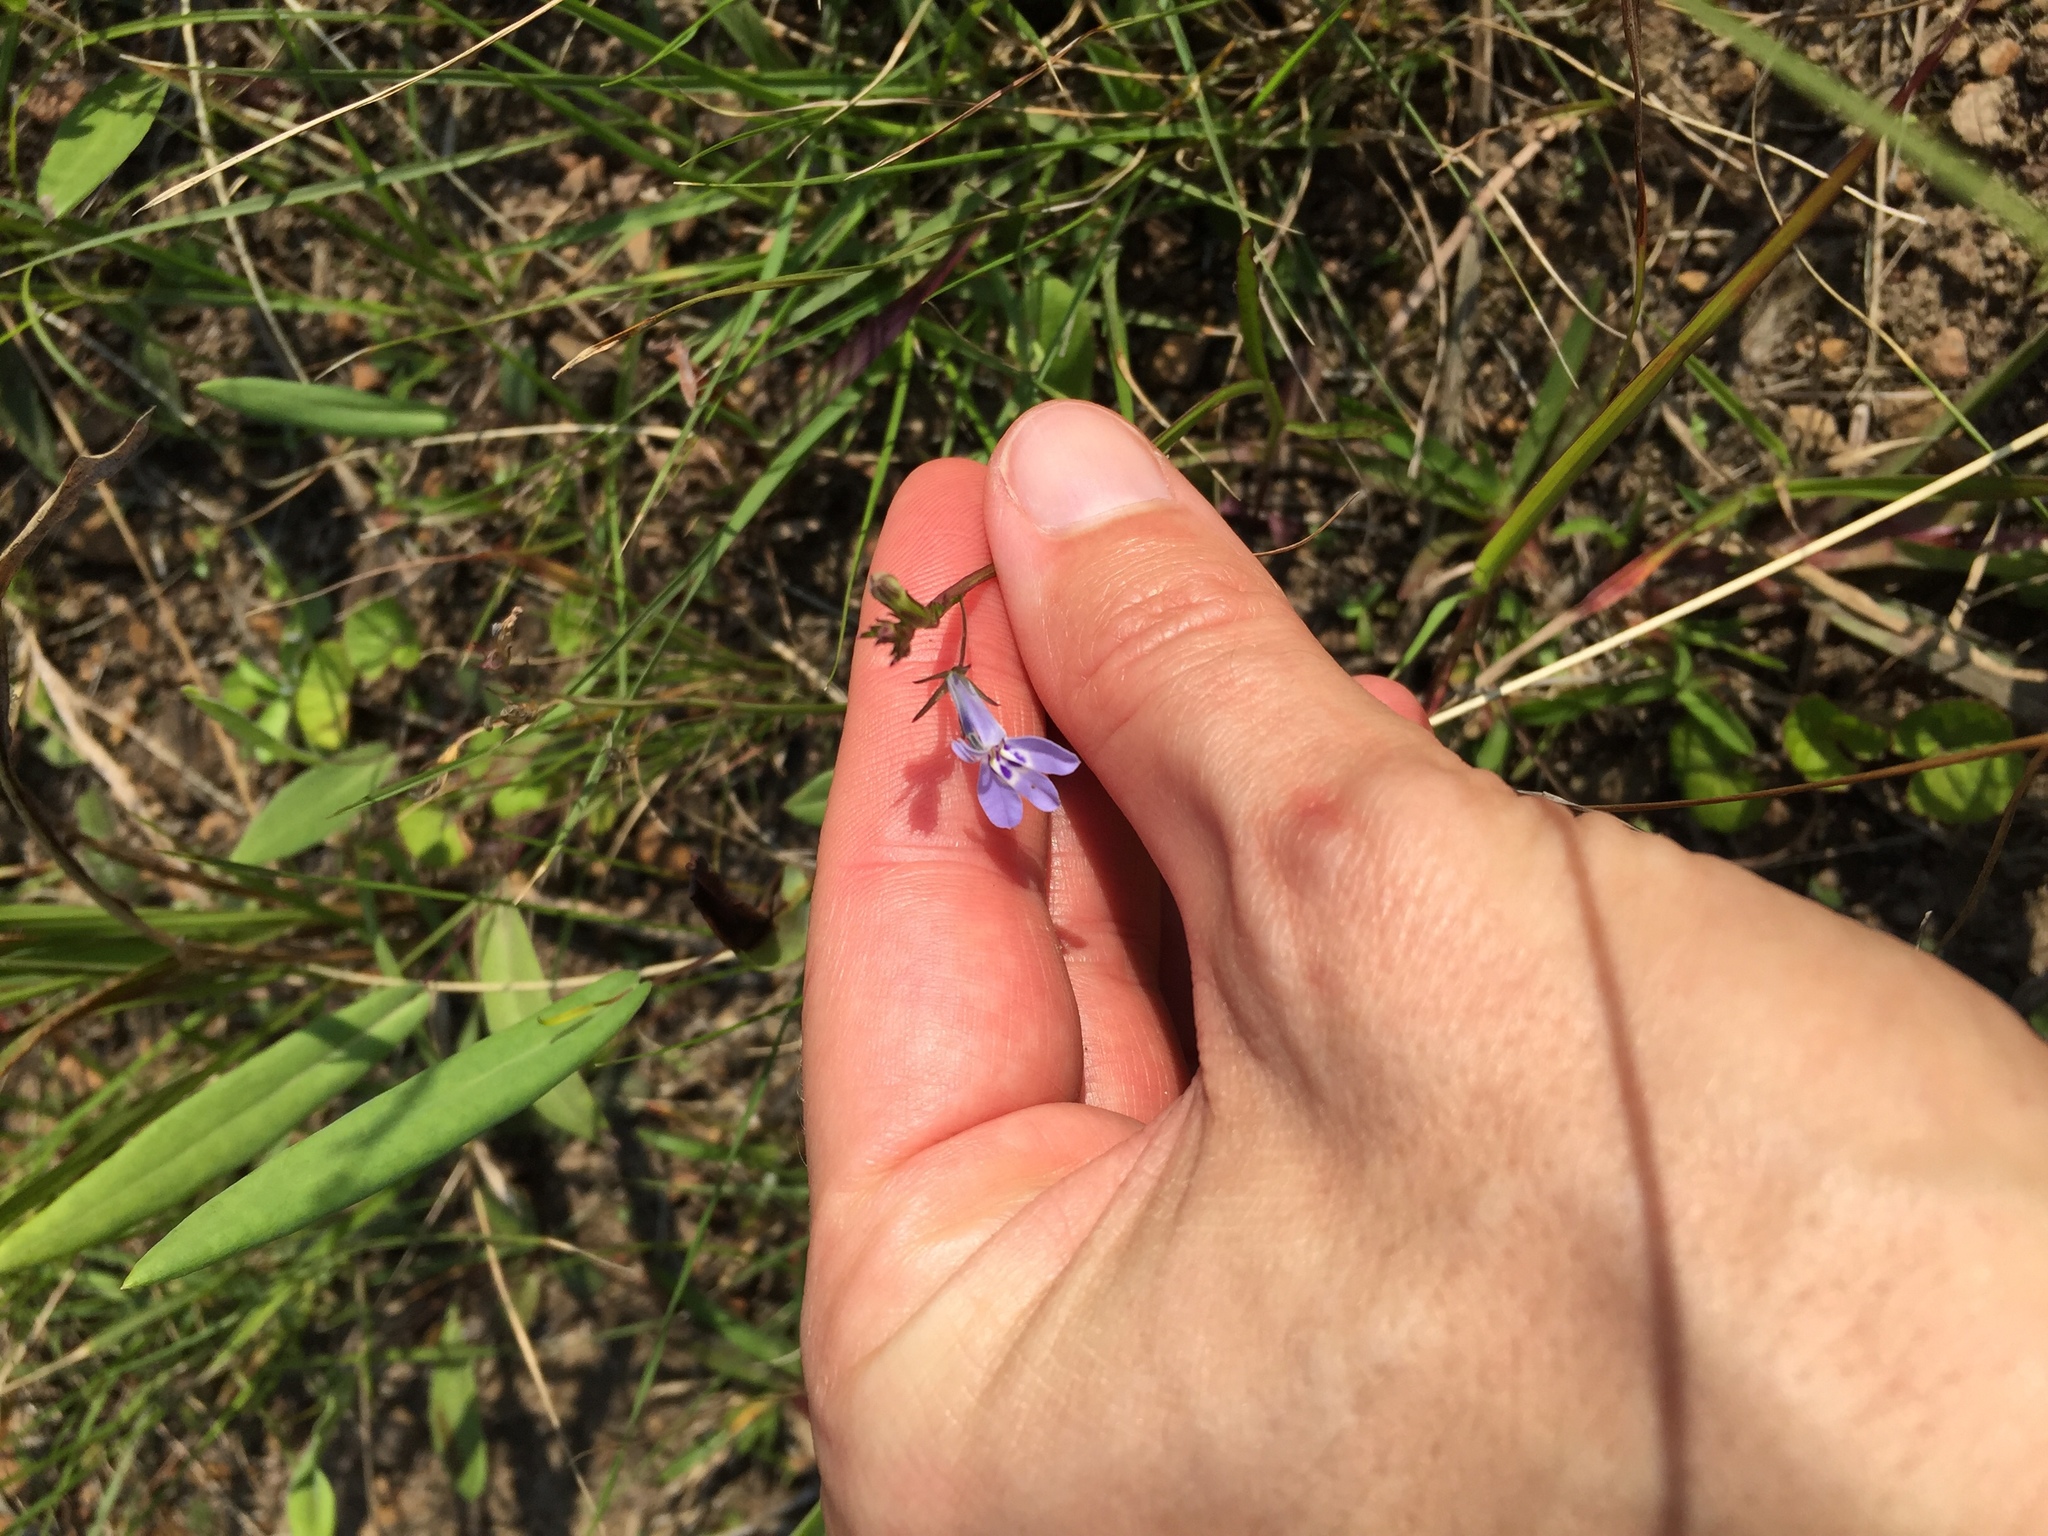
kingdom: Plantae
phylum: Tracheophyta
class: Magnoliopsida
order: Asterales
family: Campanulaceae
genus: Lobelia
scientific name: Lobelia flaccida
